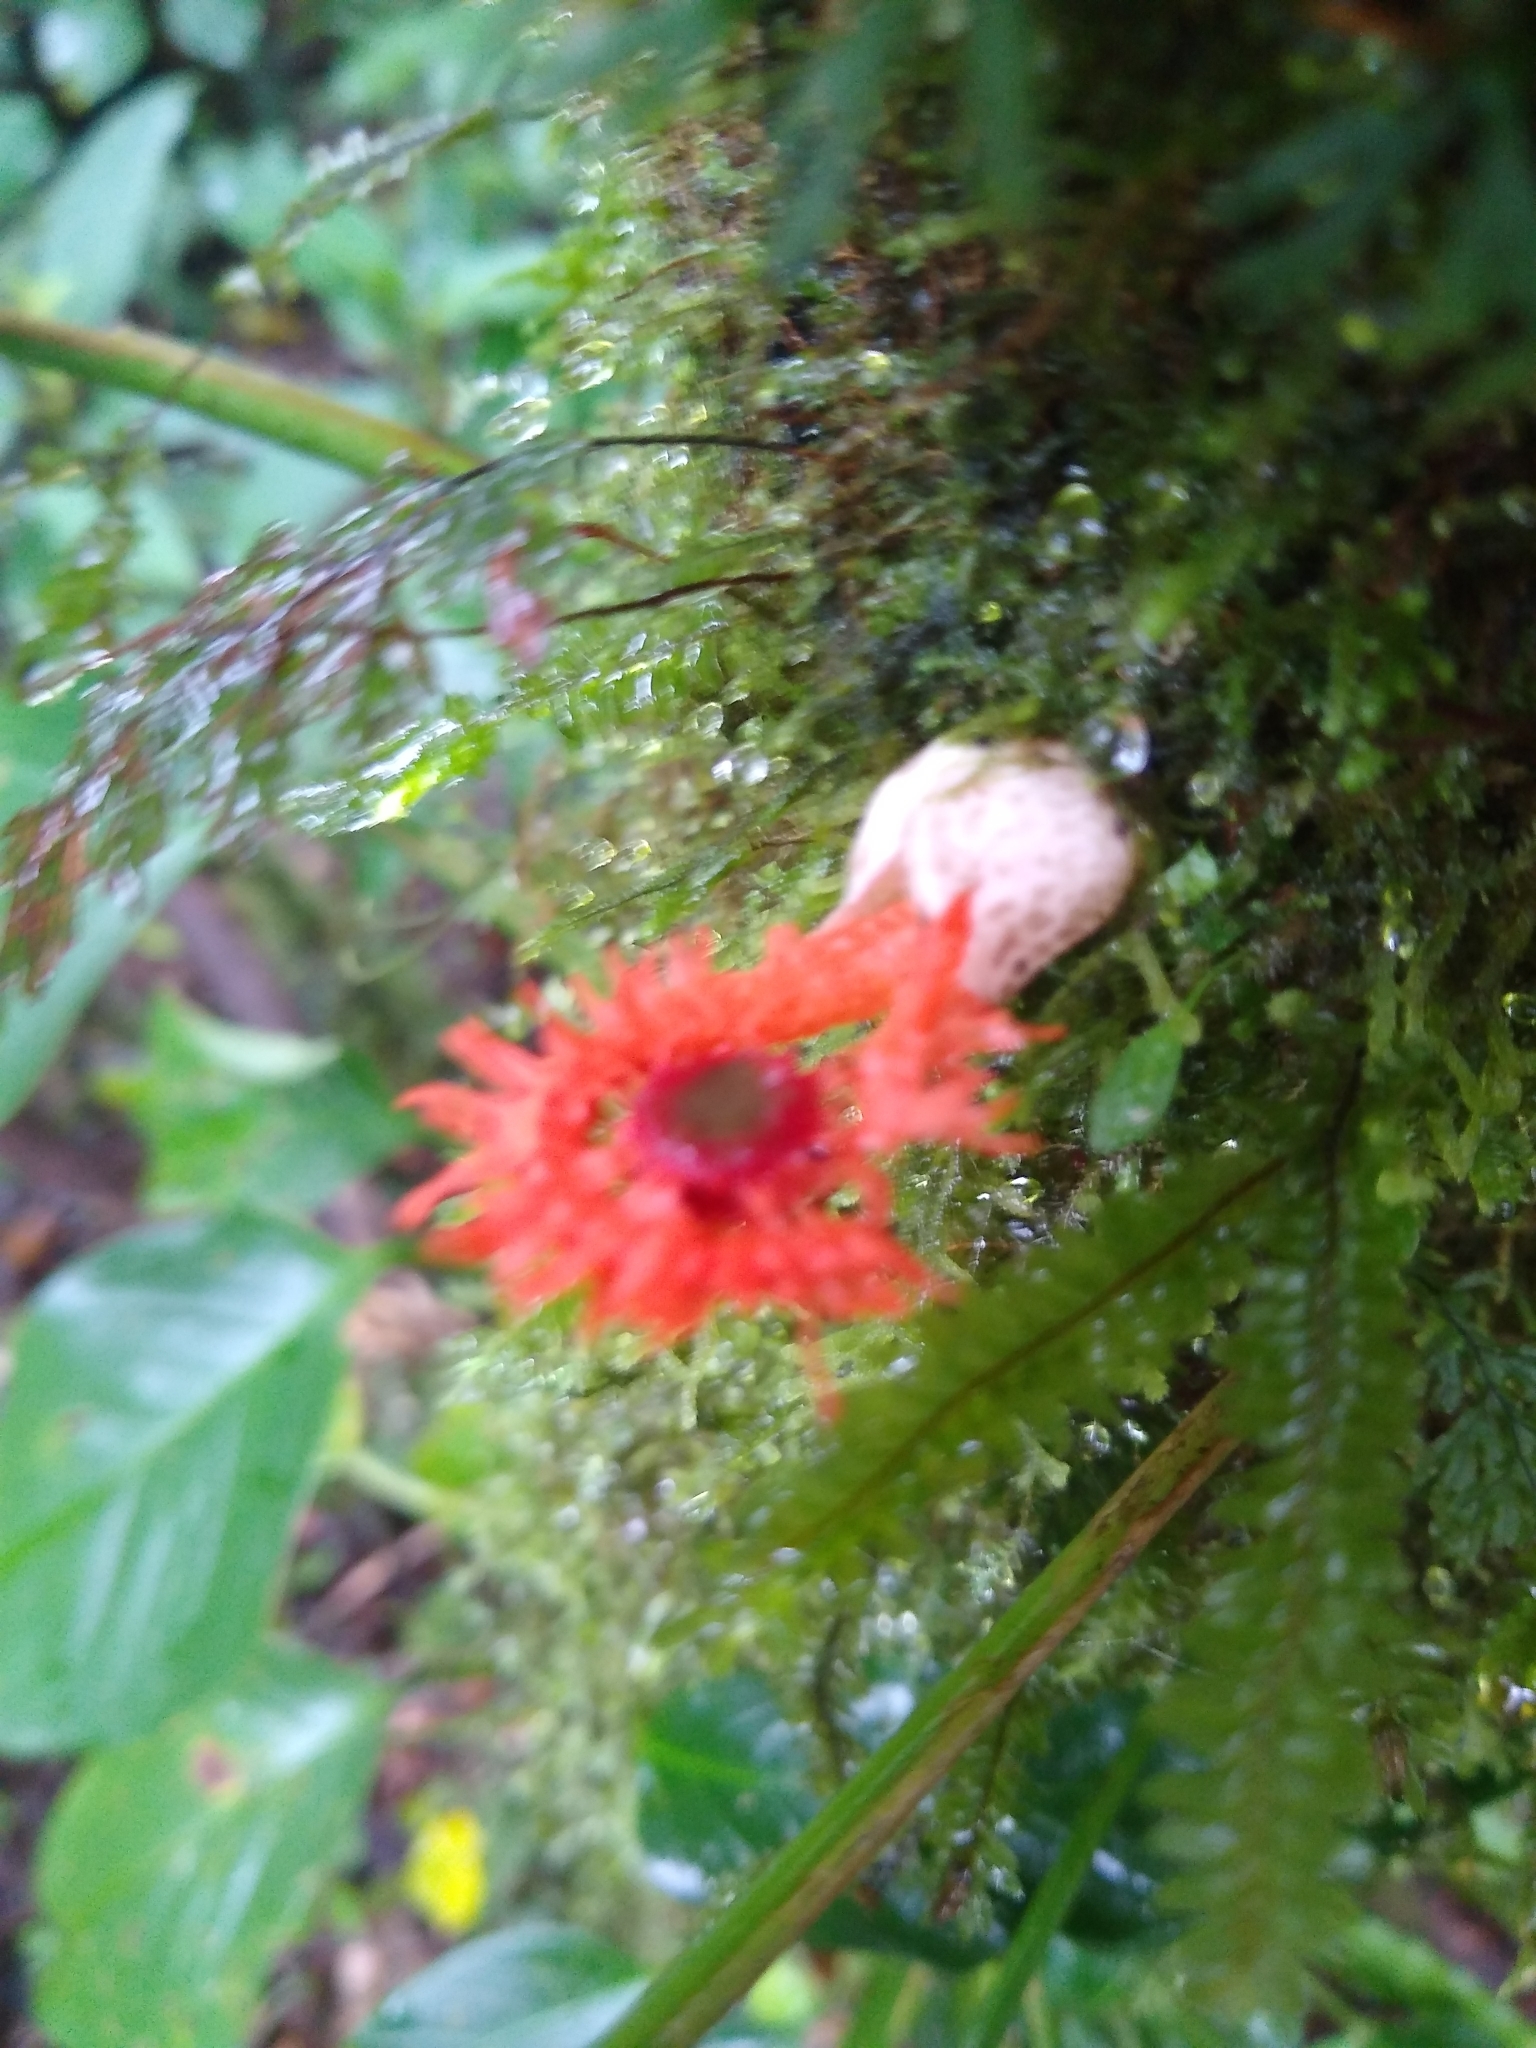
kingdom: Fungi
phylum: Basidiomycota
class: Agaricomycetes
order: Phallales
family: Phallaceae
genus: Laternea
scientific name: Laternea pusilla
